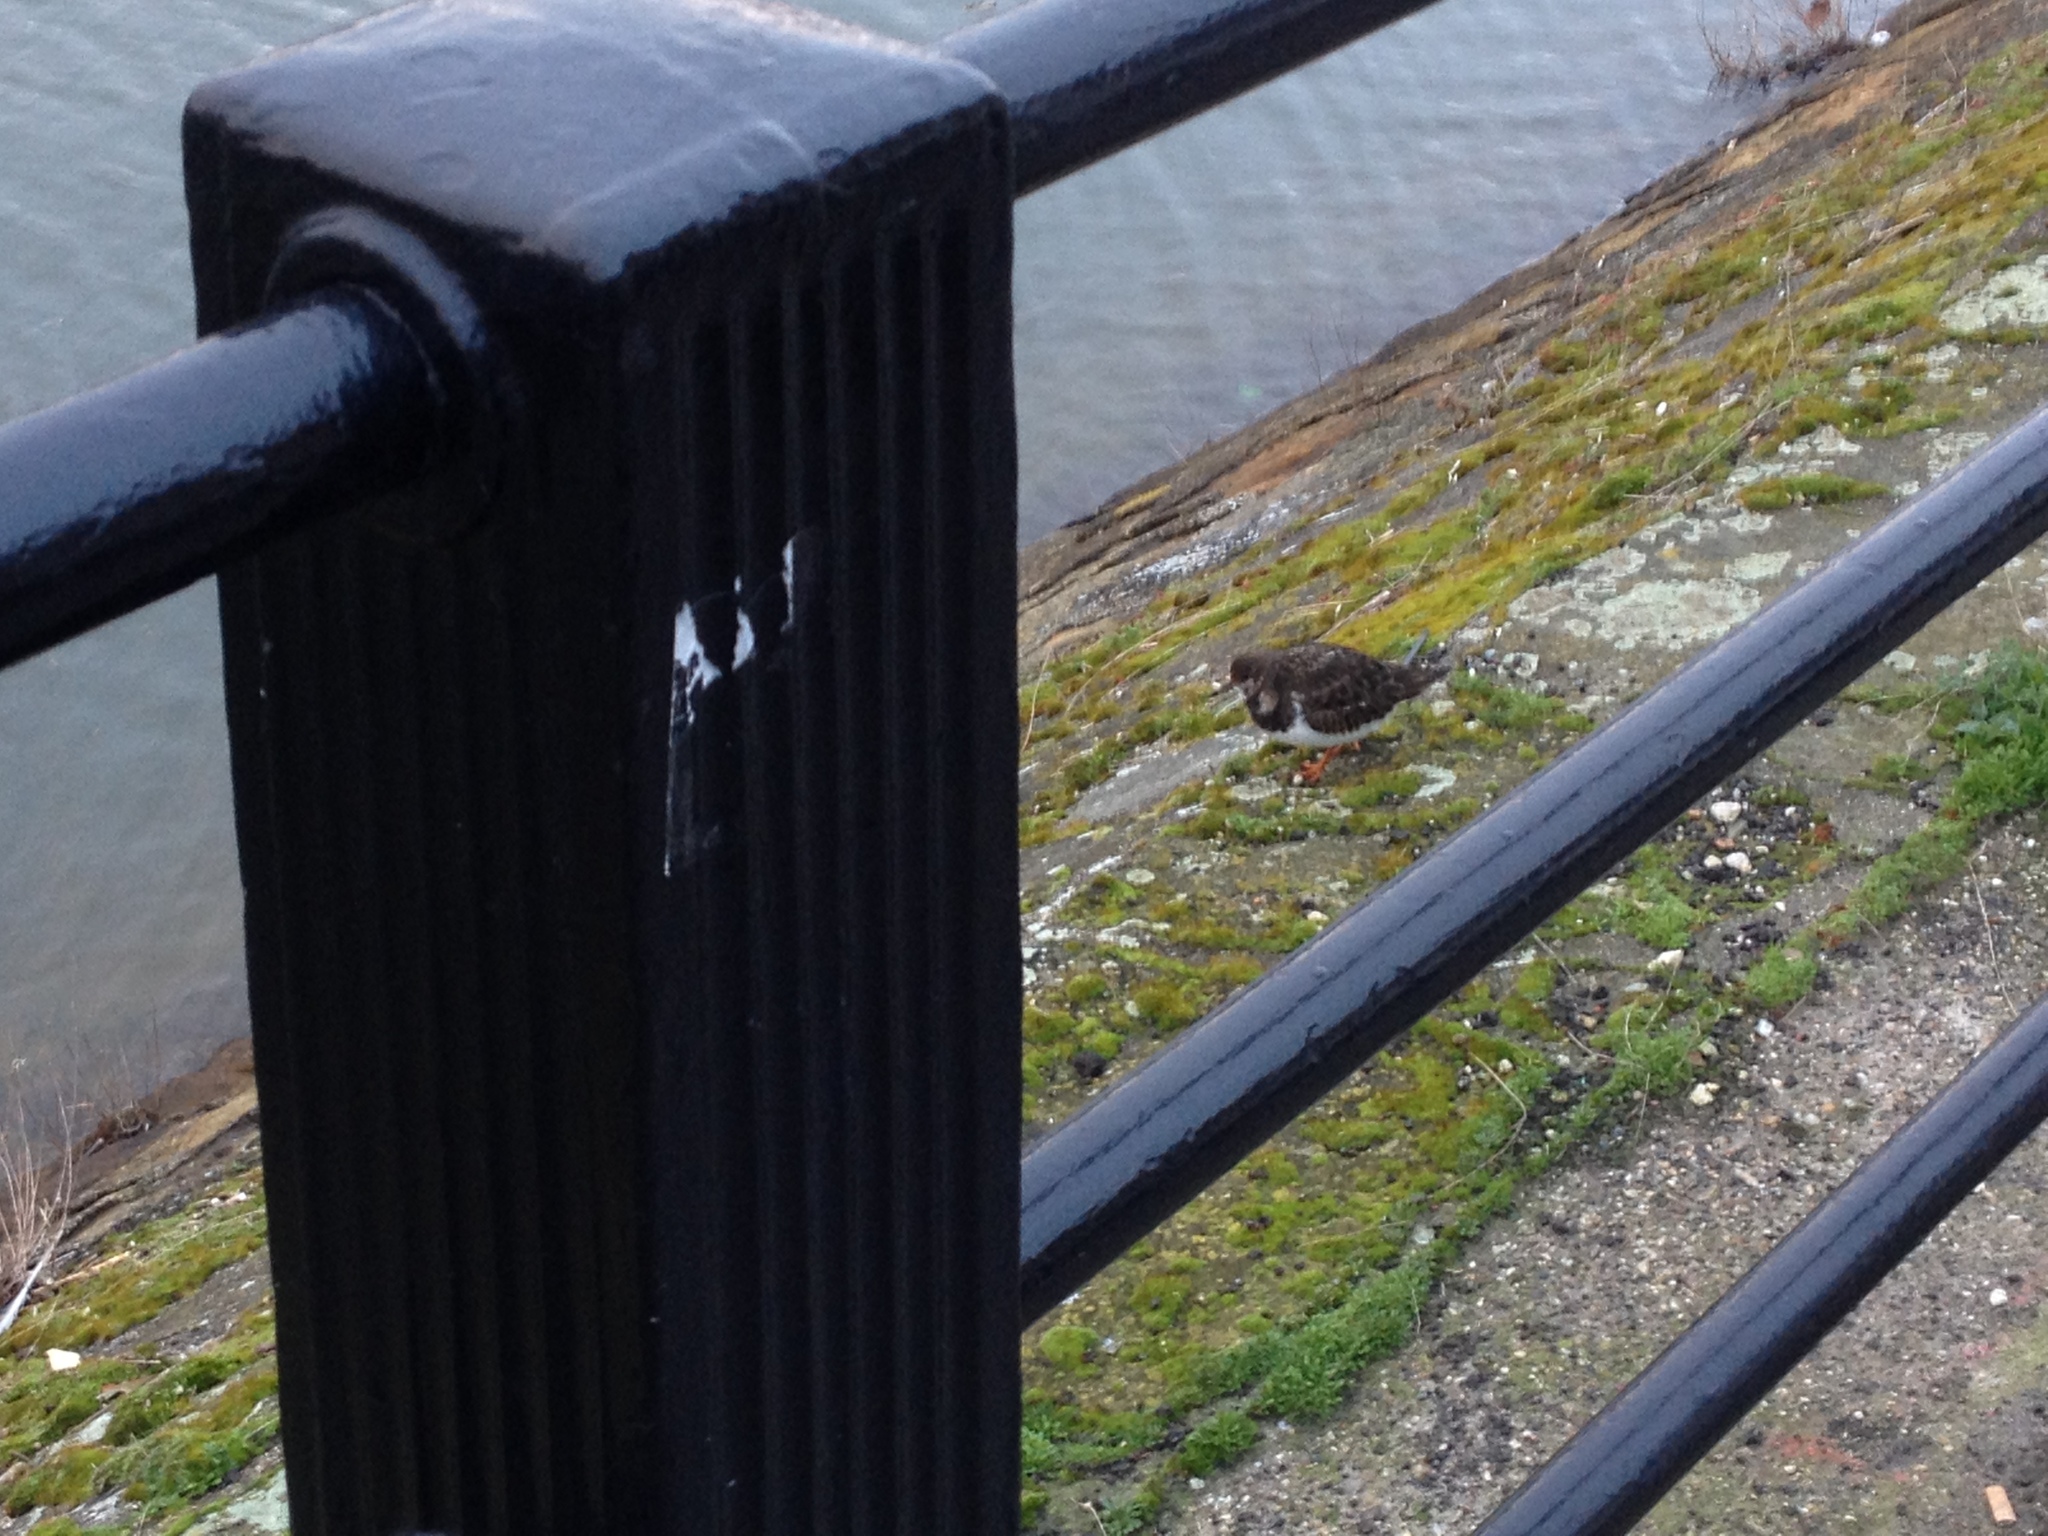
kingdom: Animalia
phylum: Chordata
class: Aves
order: Charadriiformes
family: Scolopacidae
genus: Arenaria
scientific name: Arenaria interpres
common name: Ruddy turnstone
